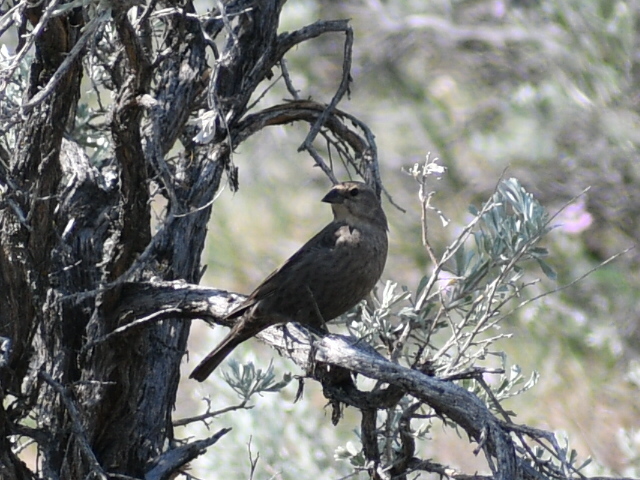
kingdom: Animalia
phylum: Chordata
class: Aves
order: Passeriformes
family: Icteridae
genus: Molothrus
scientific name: Molothrus ater
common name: Brown-headed cowbird
